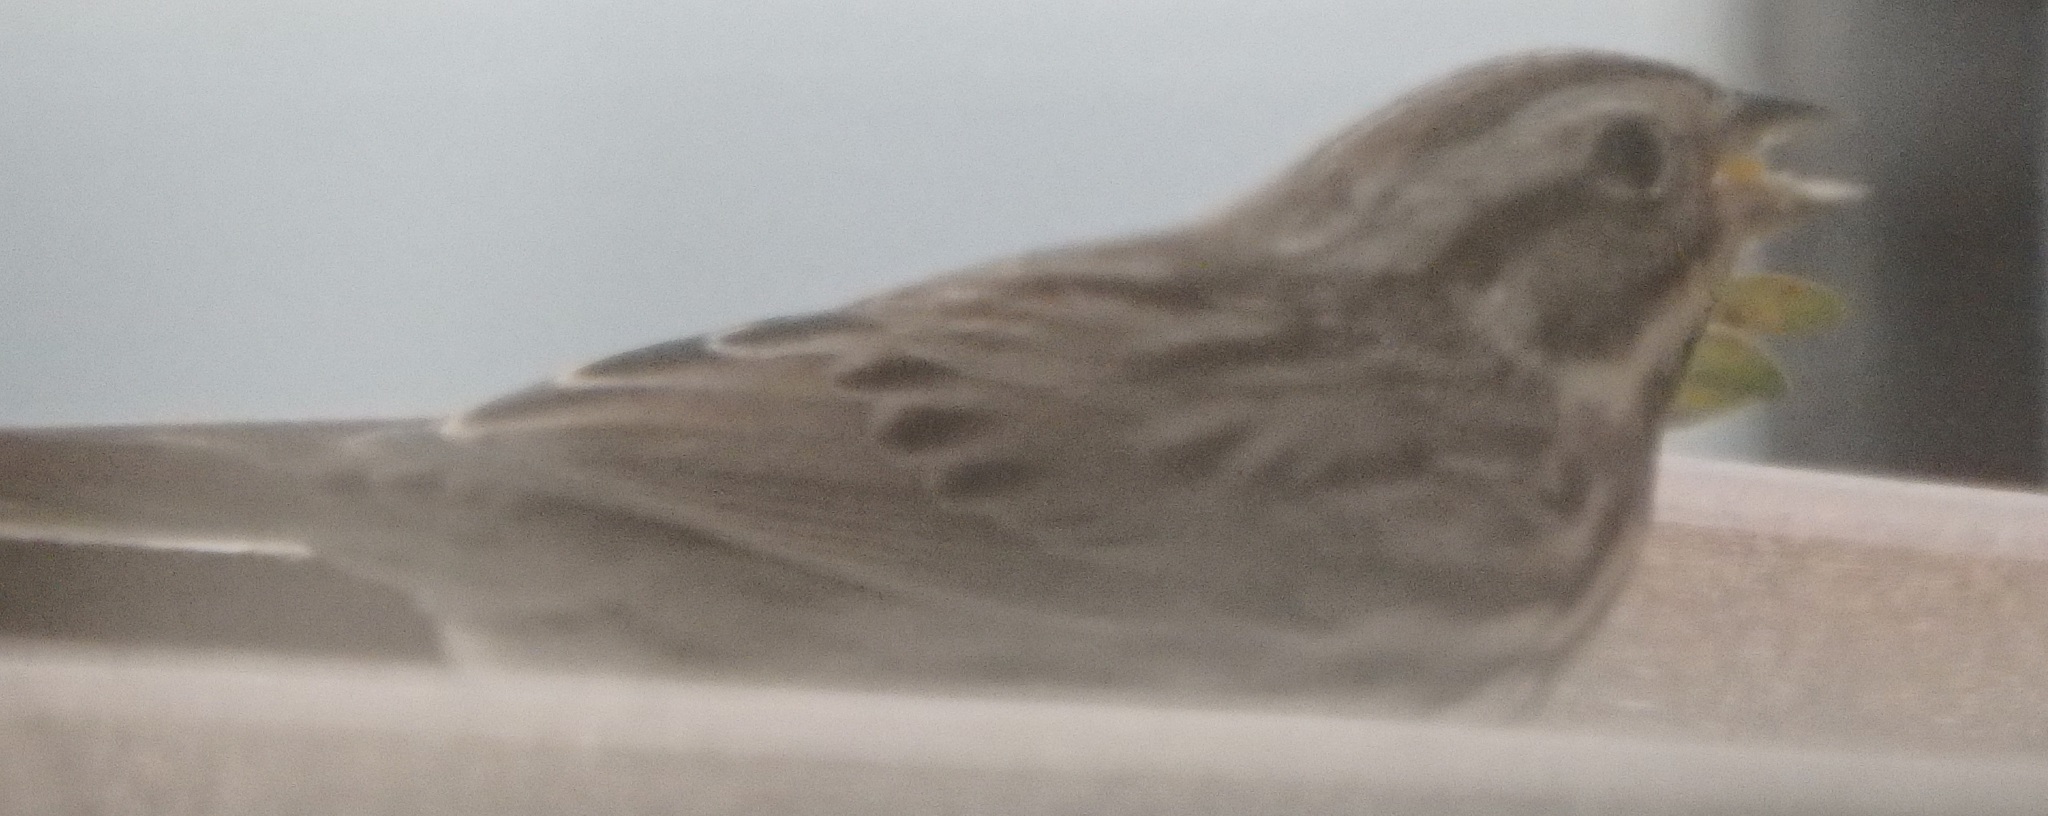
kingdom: Animalia
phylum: Chordata
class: Aves
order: Passeriformes
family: Passerellidae
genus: Melospiza
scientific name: Melospiza melodia
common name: Song sparrow
